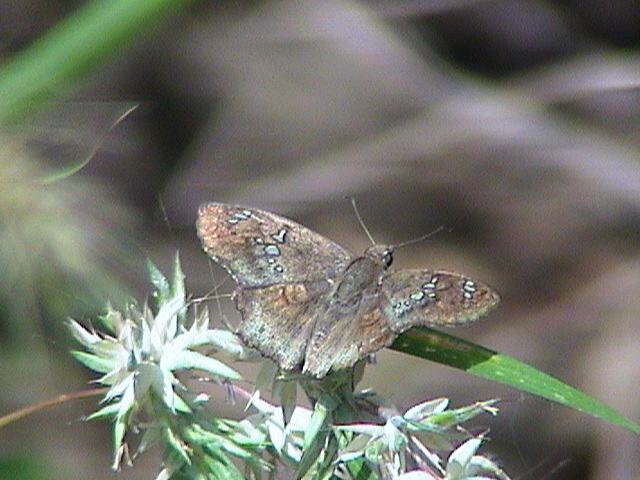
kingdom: Animalia
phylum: Arthropoda
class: Insecta
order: Lepidoptera
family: Hesperiidae
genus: Caprona
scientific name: Caprona ransonnettii
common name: Golden angle
